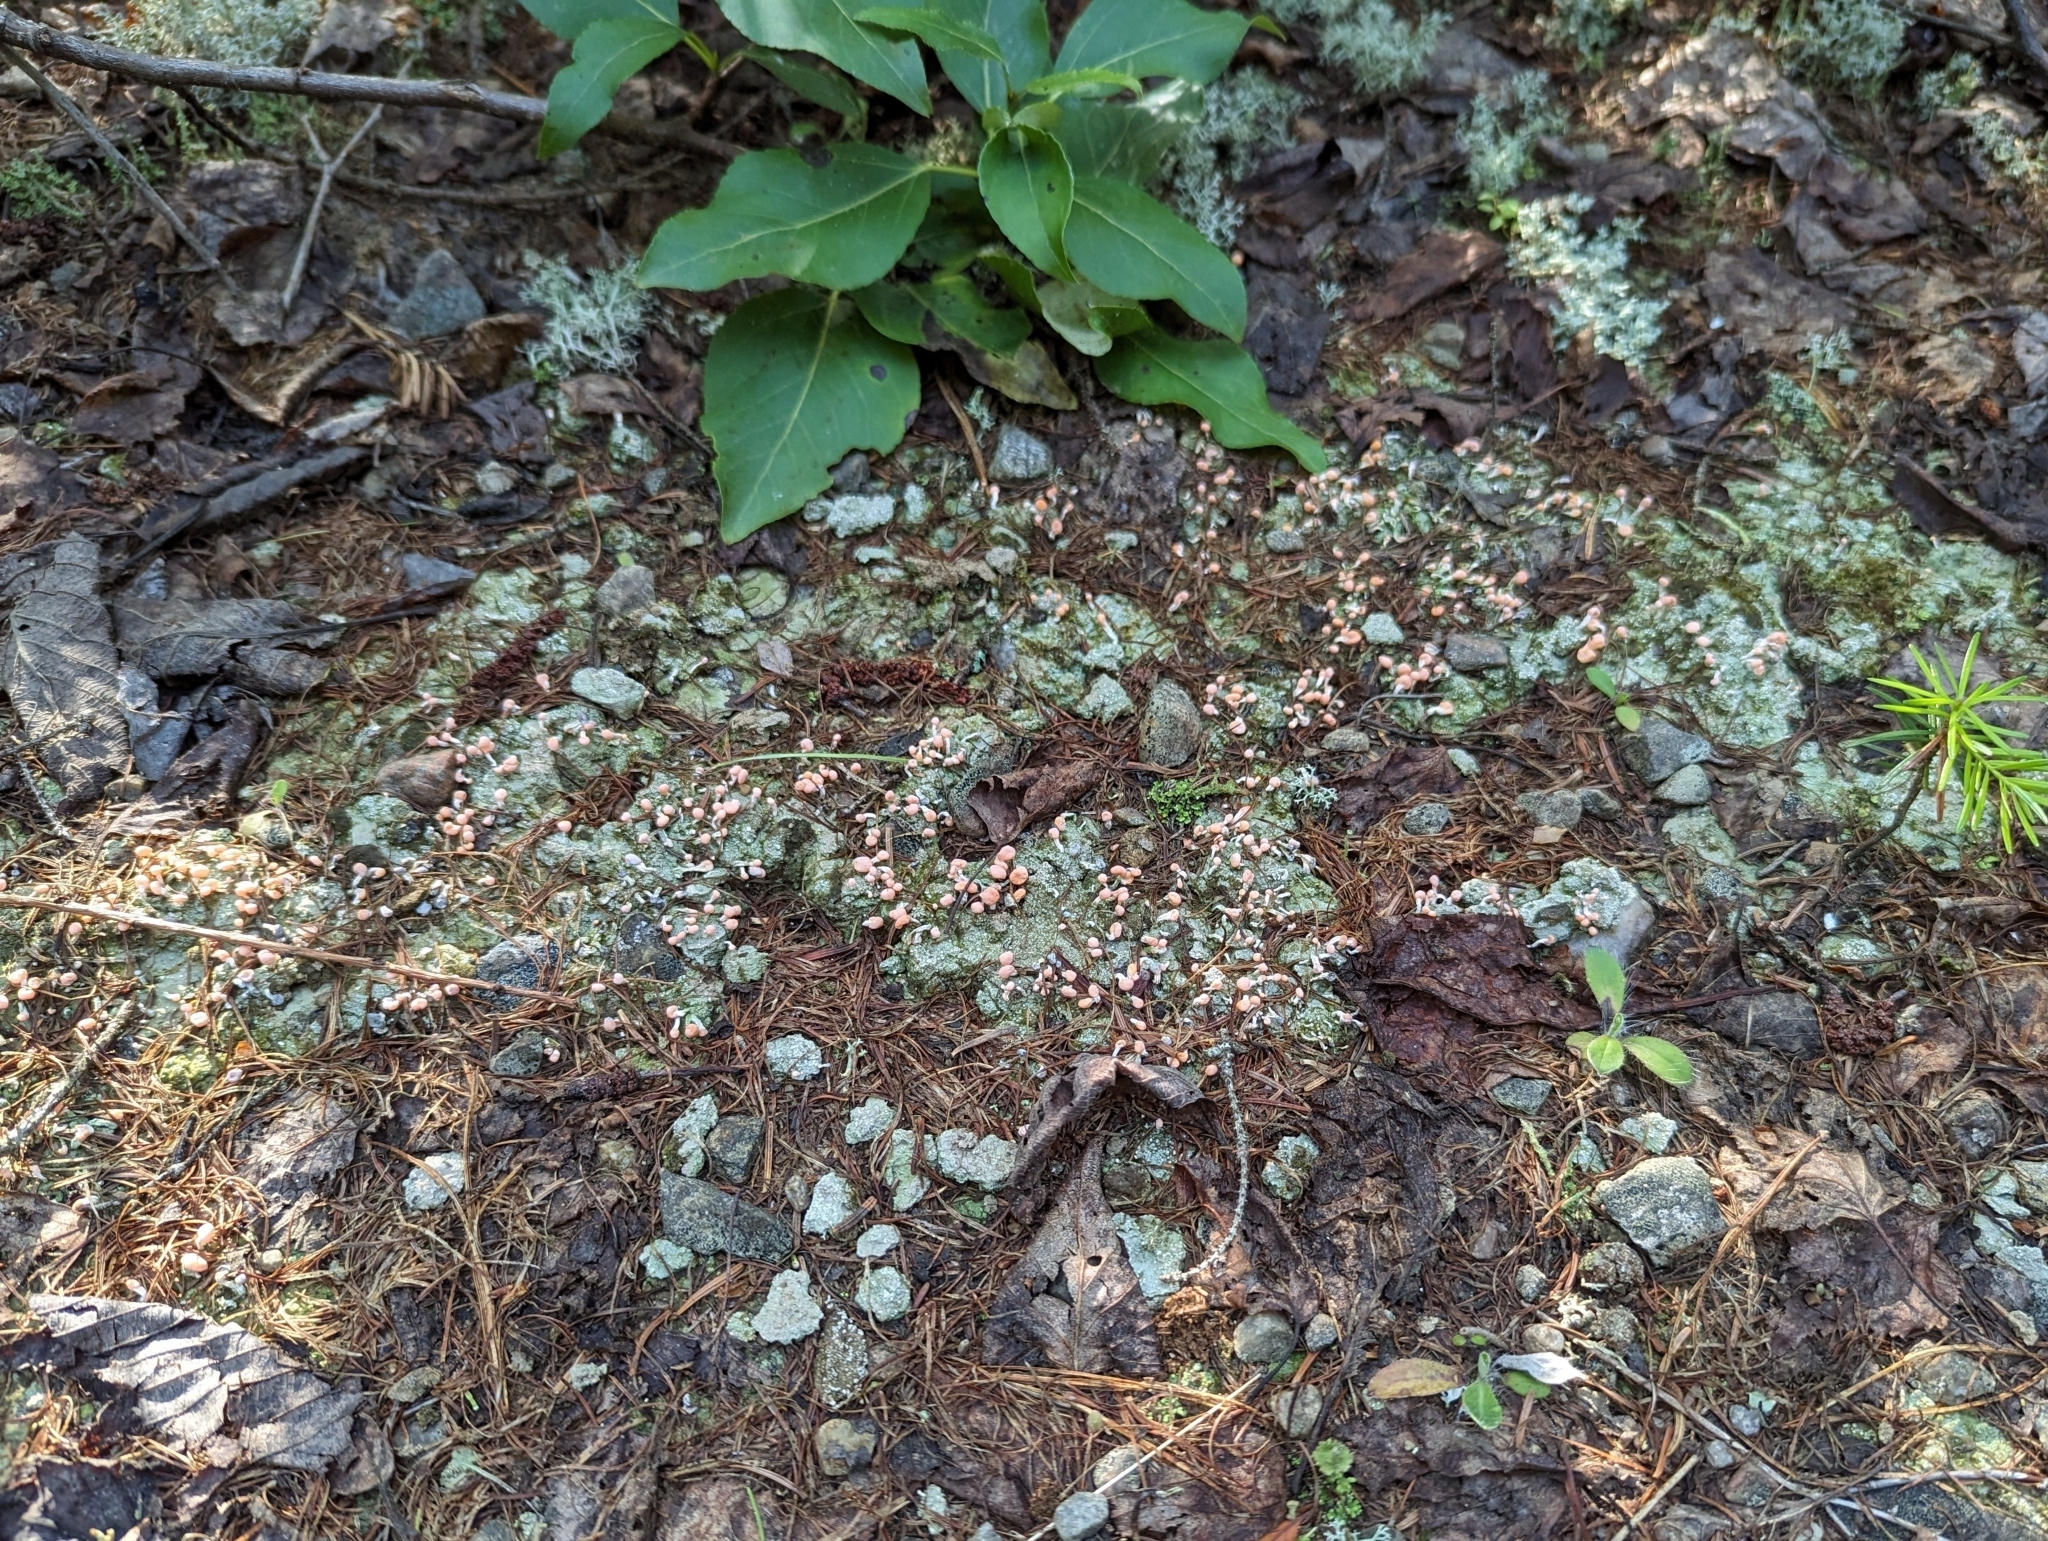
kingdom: Fungi
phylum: Ascomycota
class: Lecanoromycetes
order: Pertusariales
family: Icmadophilaceae
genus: Dibaeis
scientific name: Dibaeis baeomyces
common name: Pink earth lichen
